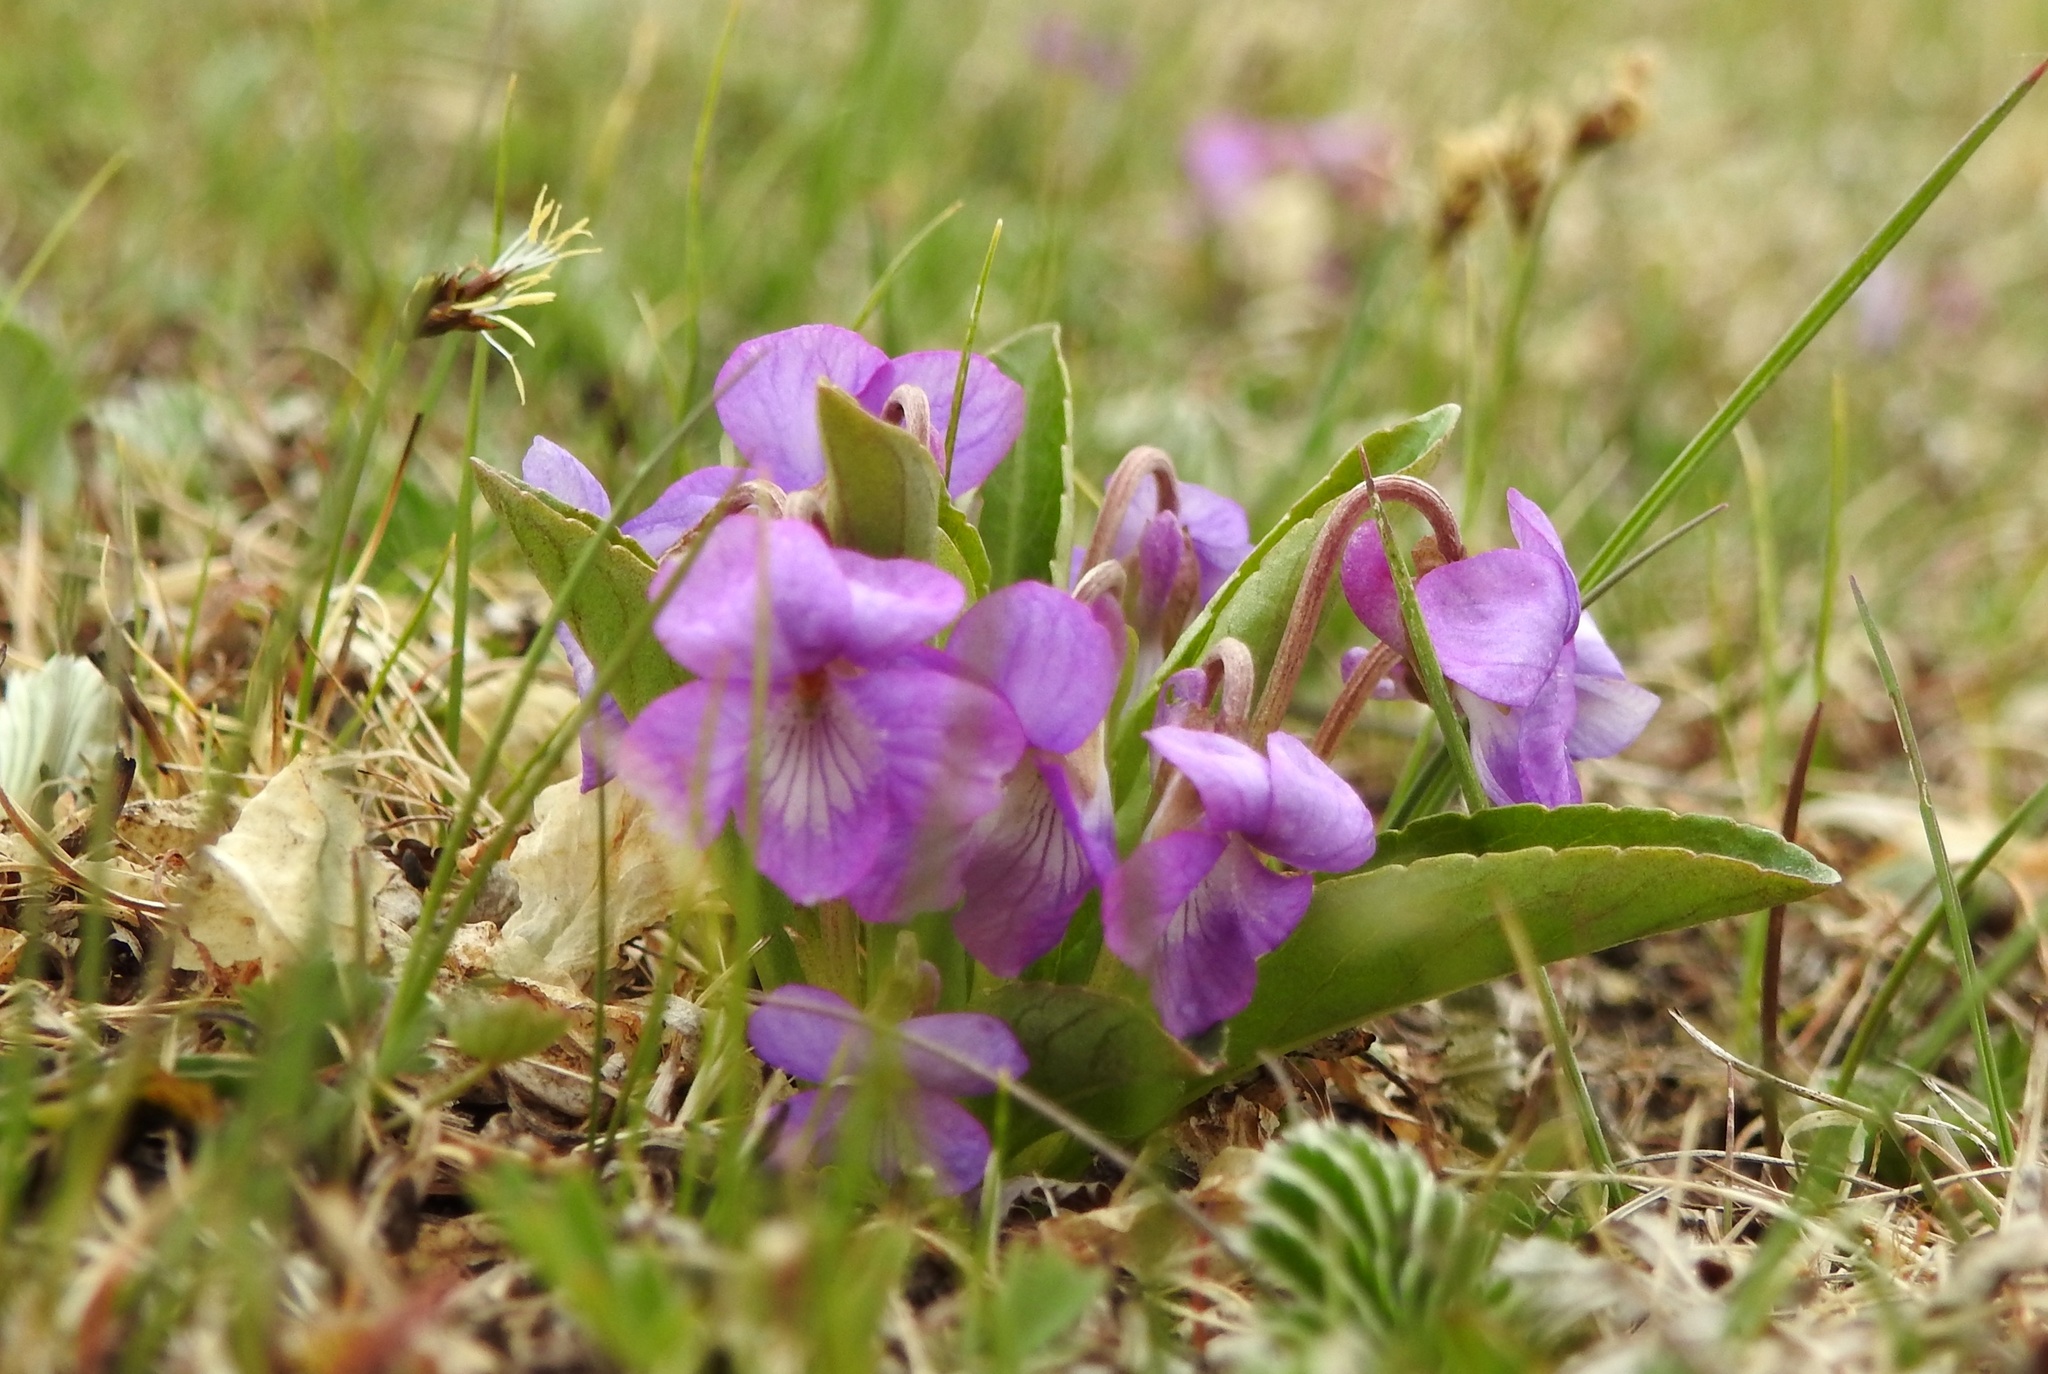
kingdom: Plantae
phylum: Tracheophyta
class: Magnoliopsida
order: Malpighiales
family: Violaceae
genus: Viola
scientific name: Viola gmeliniana
